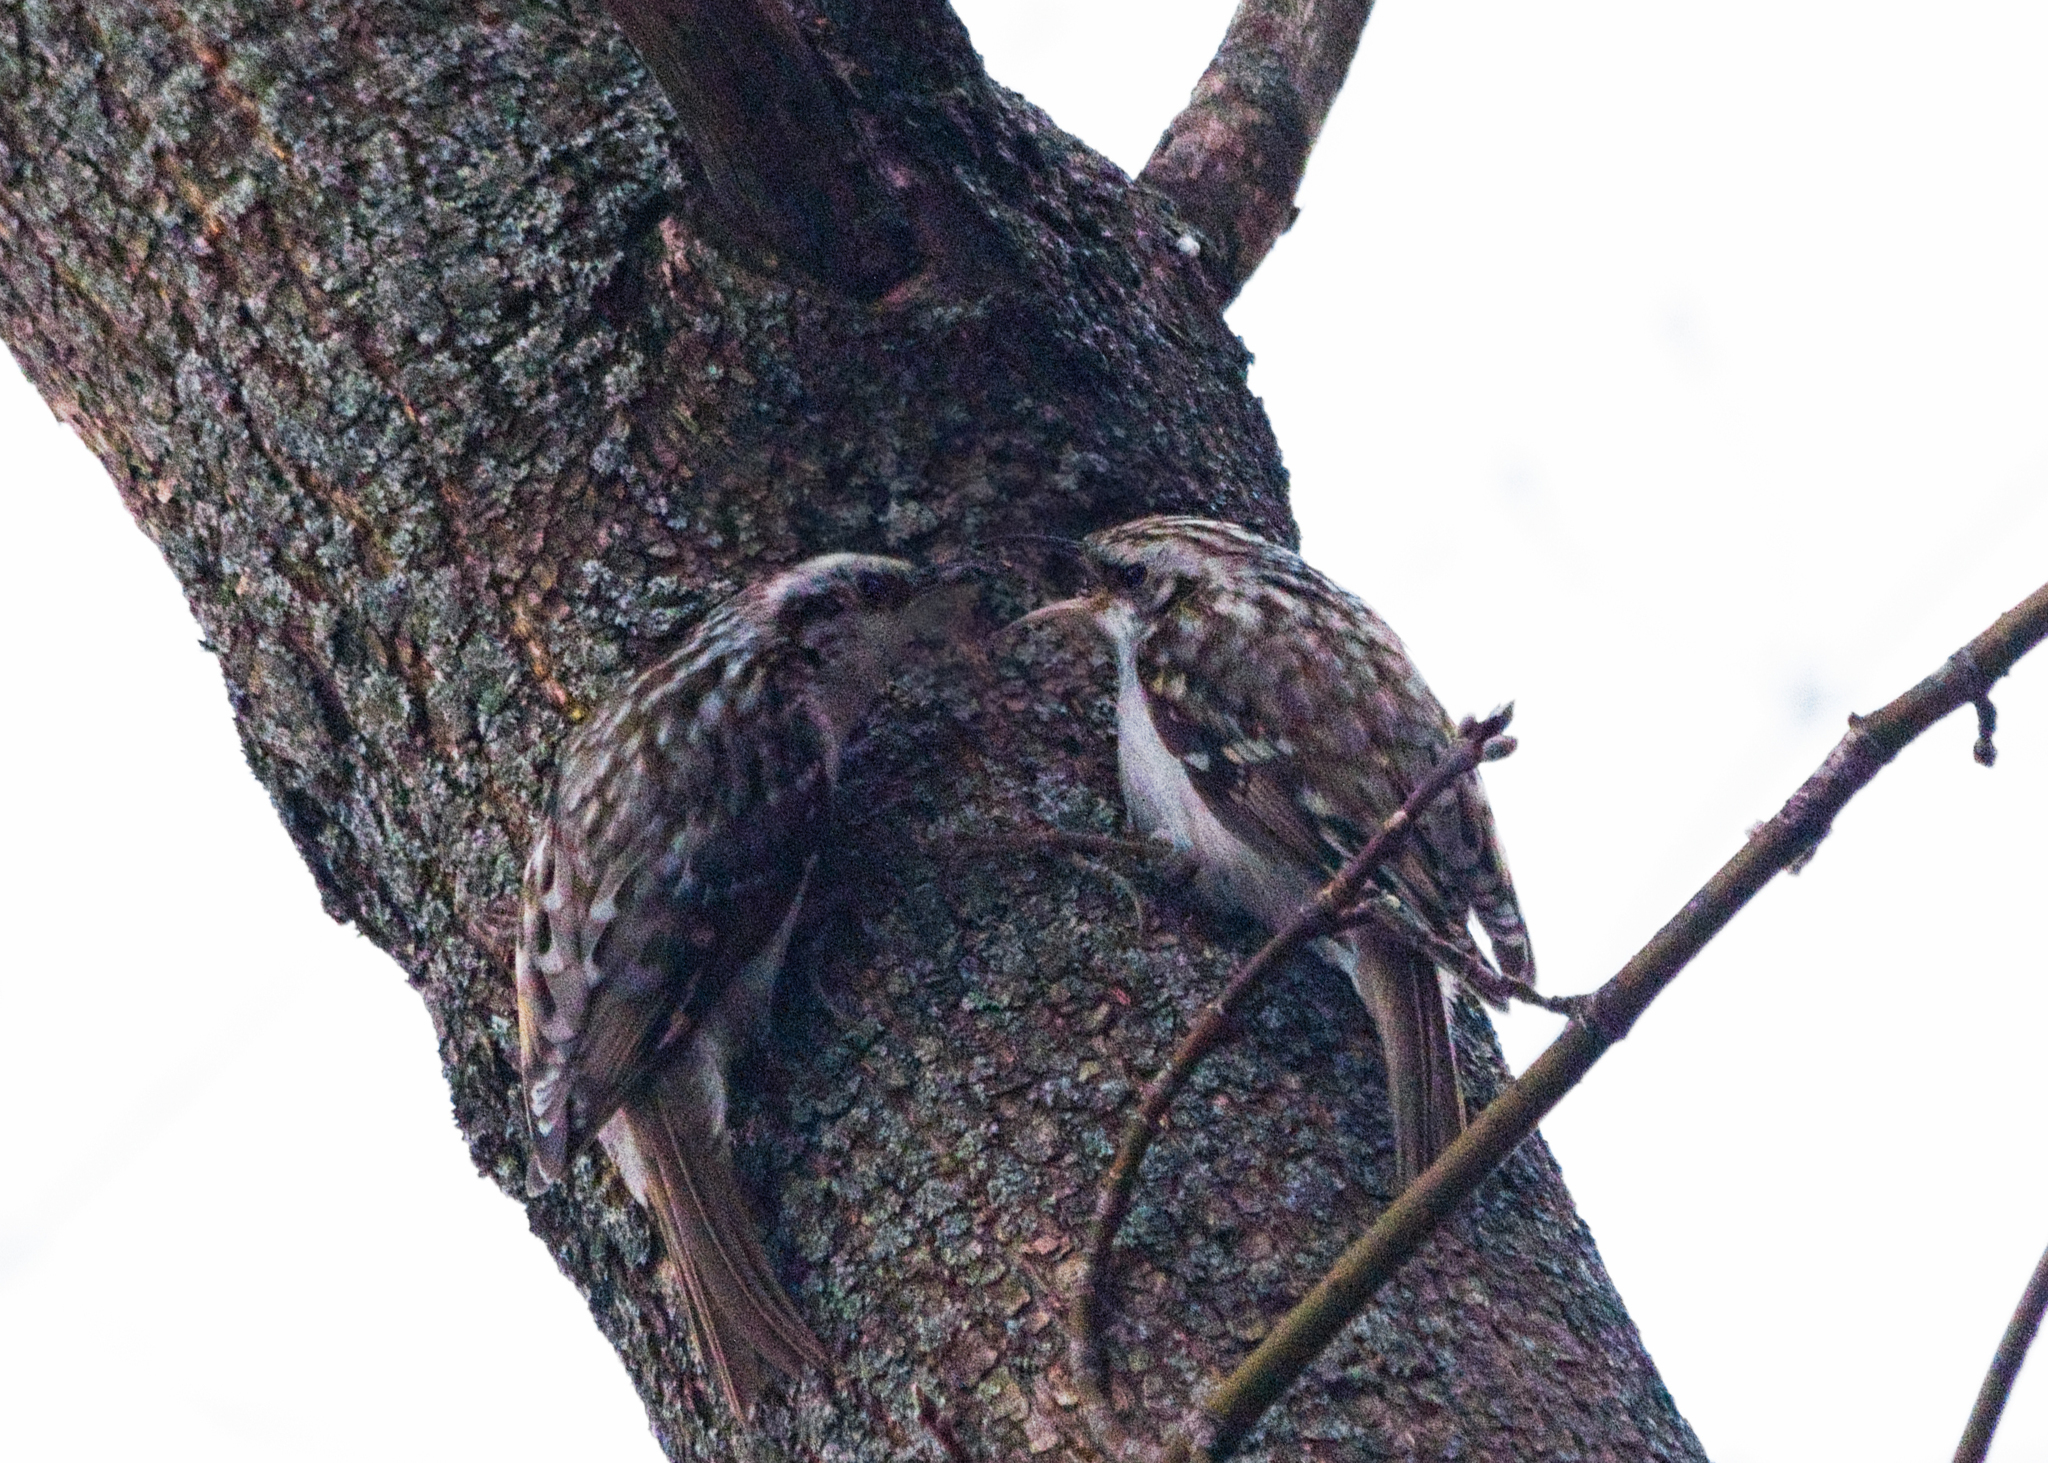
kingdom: Animalia
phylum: Chordata
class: Aves
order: Passeriformes
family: Certhiidae
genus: Certhia
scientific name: Certhia familiaris
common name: Eurasian treecreeper
